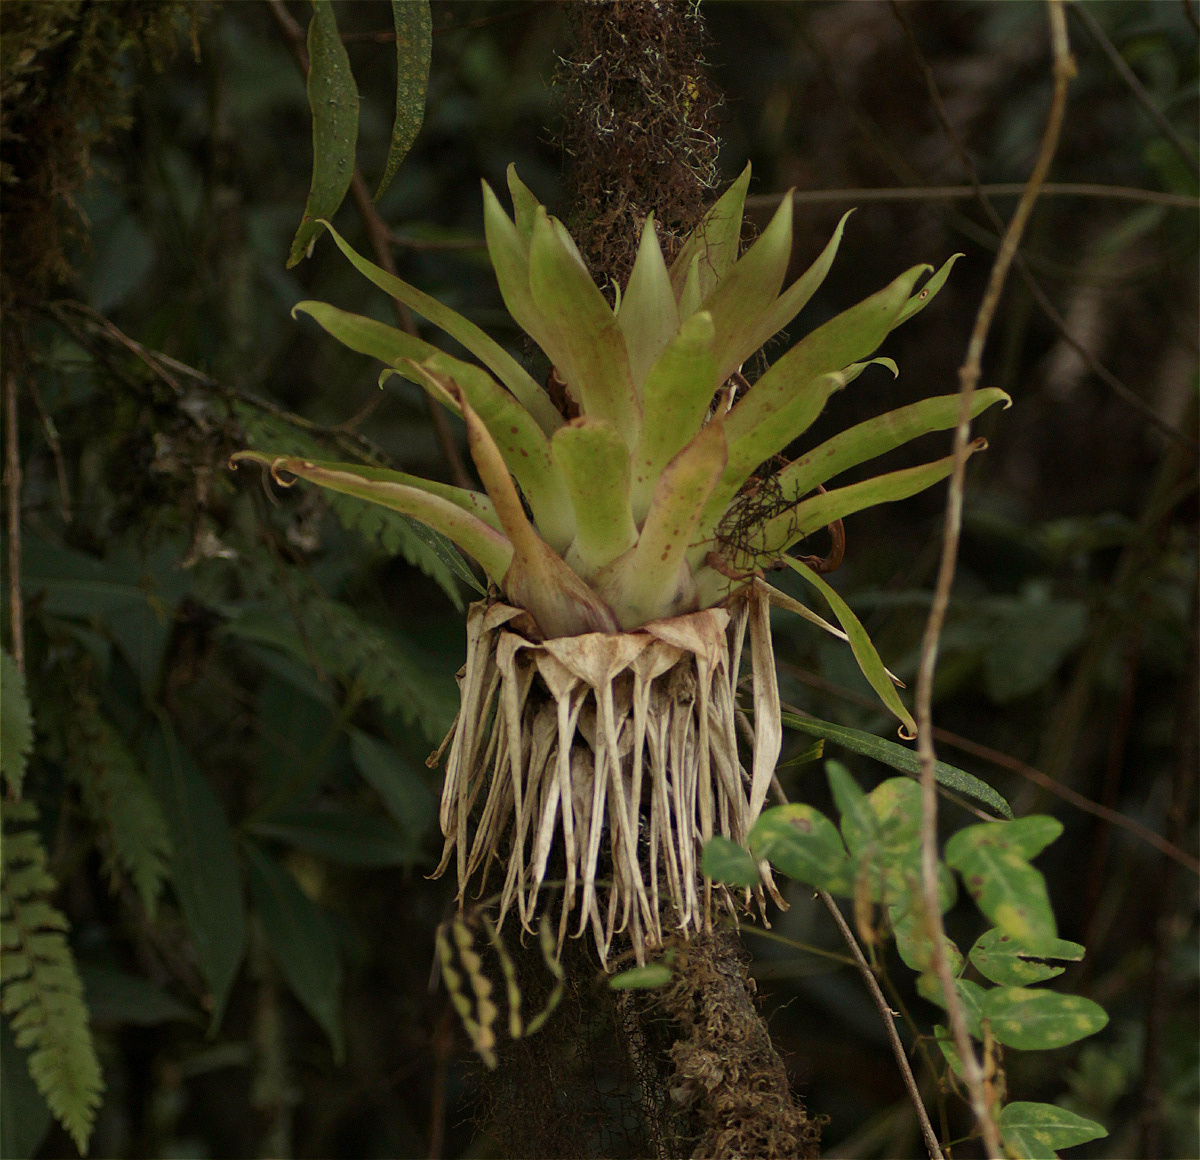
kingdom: Plantae
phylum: Tracheophyta
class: Liliopsida
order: Poales
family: Bromeliaceae
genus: Tillandsia
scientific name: Tillandsia biflora
